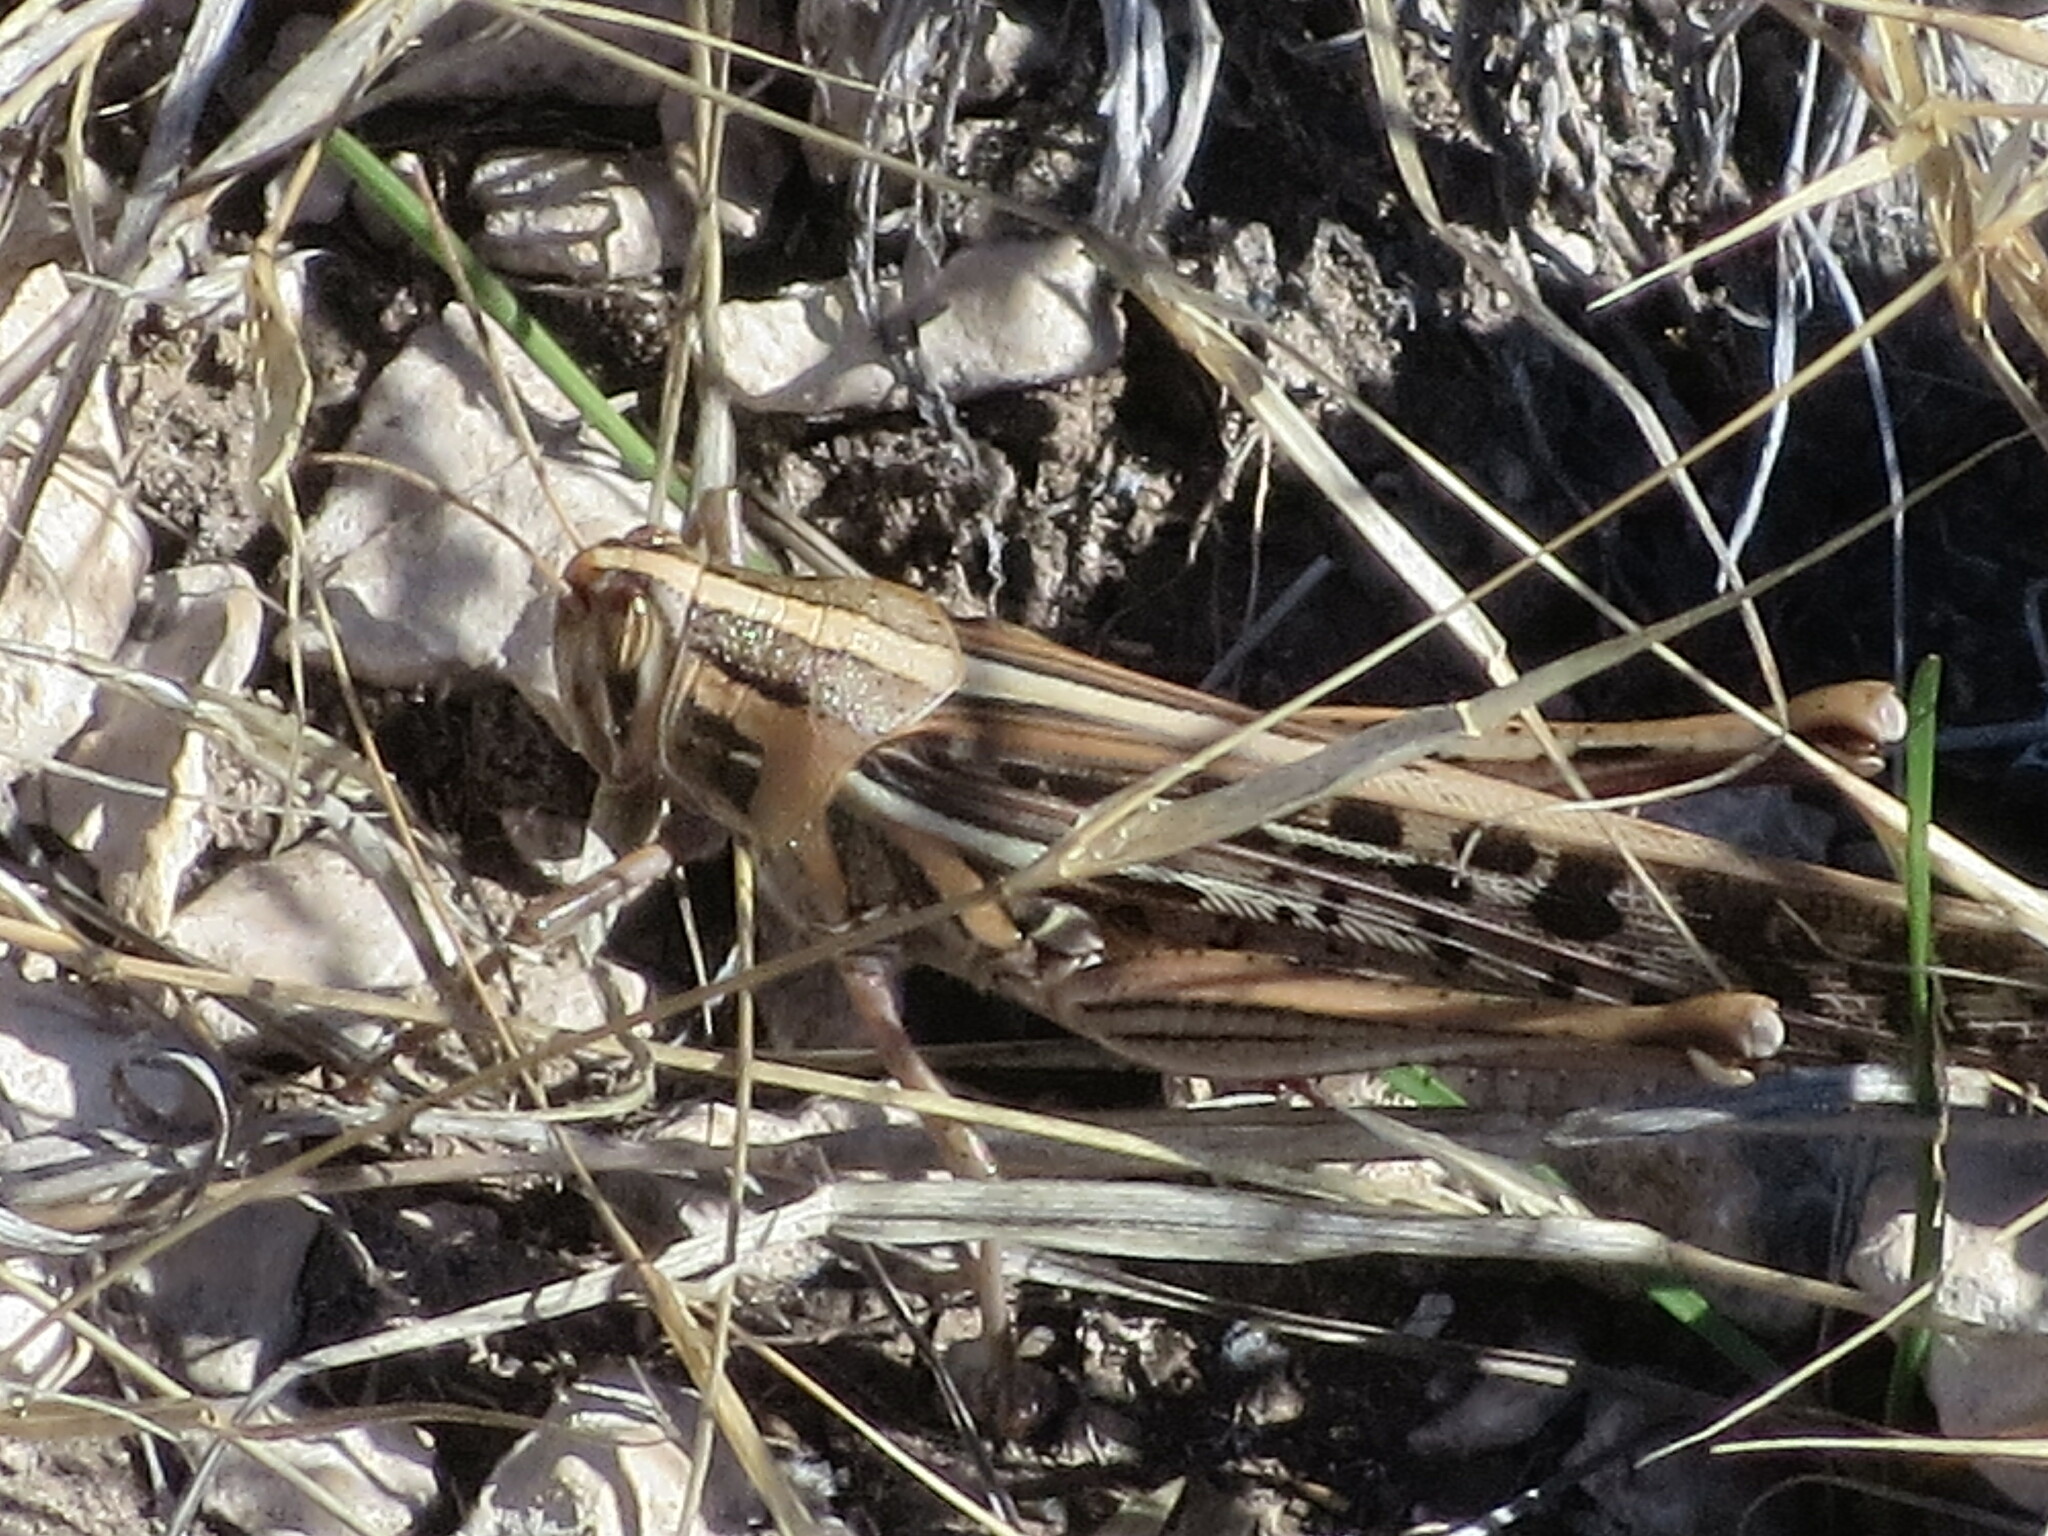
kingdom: Animalia
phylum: Arthropoda
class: Insecta
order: Orthoptera
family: Acrididae
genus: Schistocerca
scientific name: Schistocerca americana
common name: American bird locust
